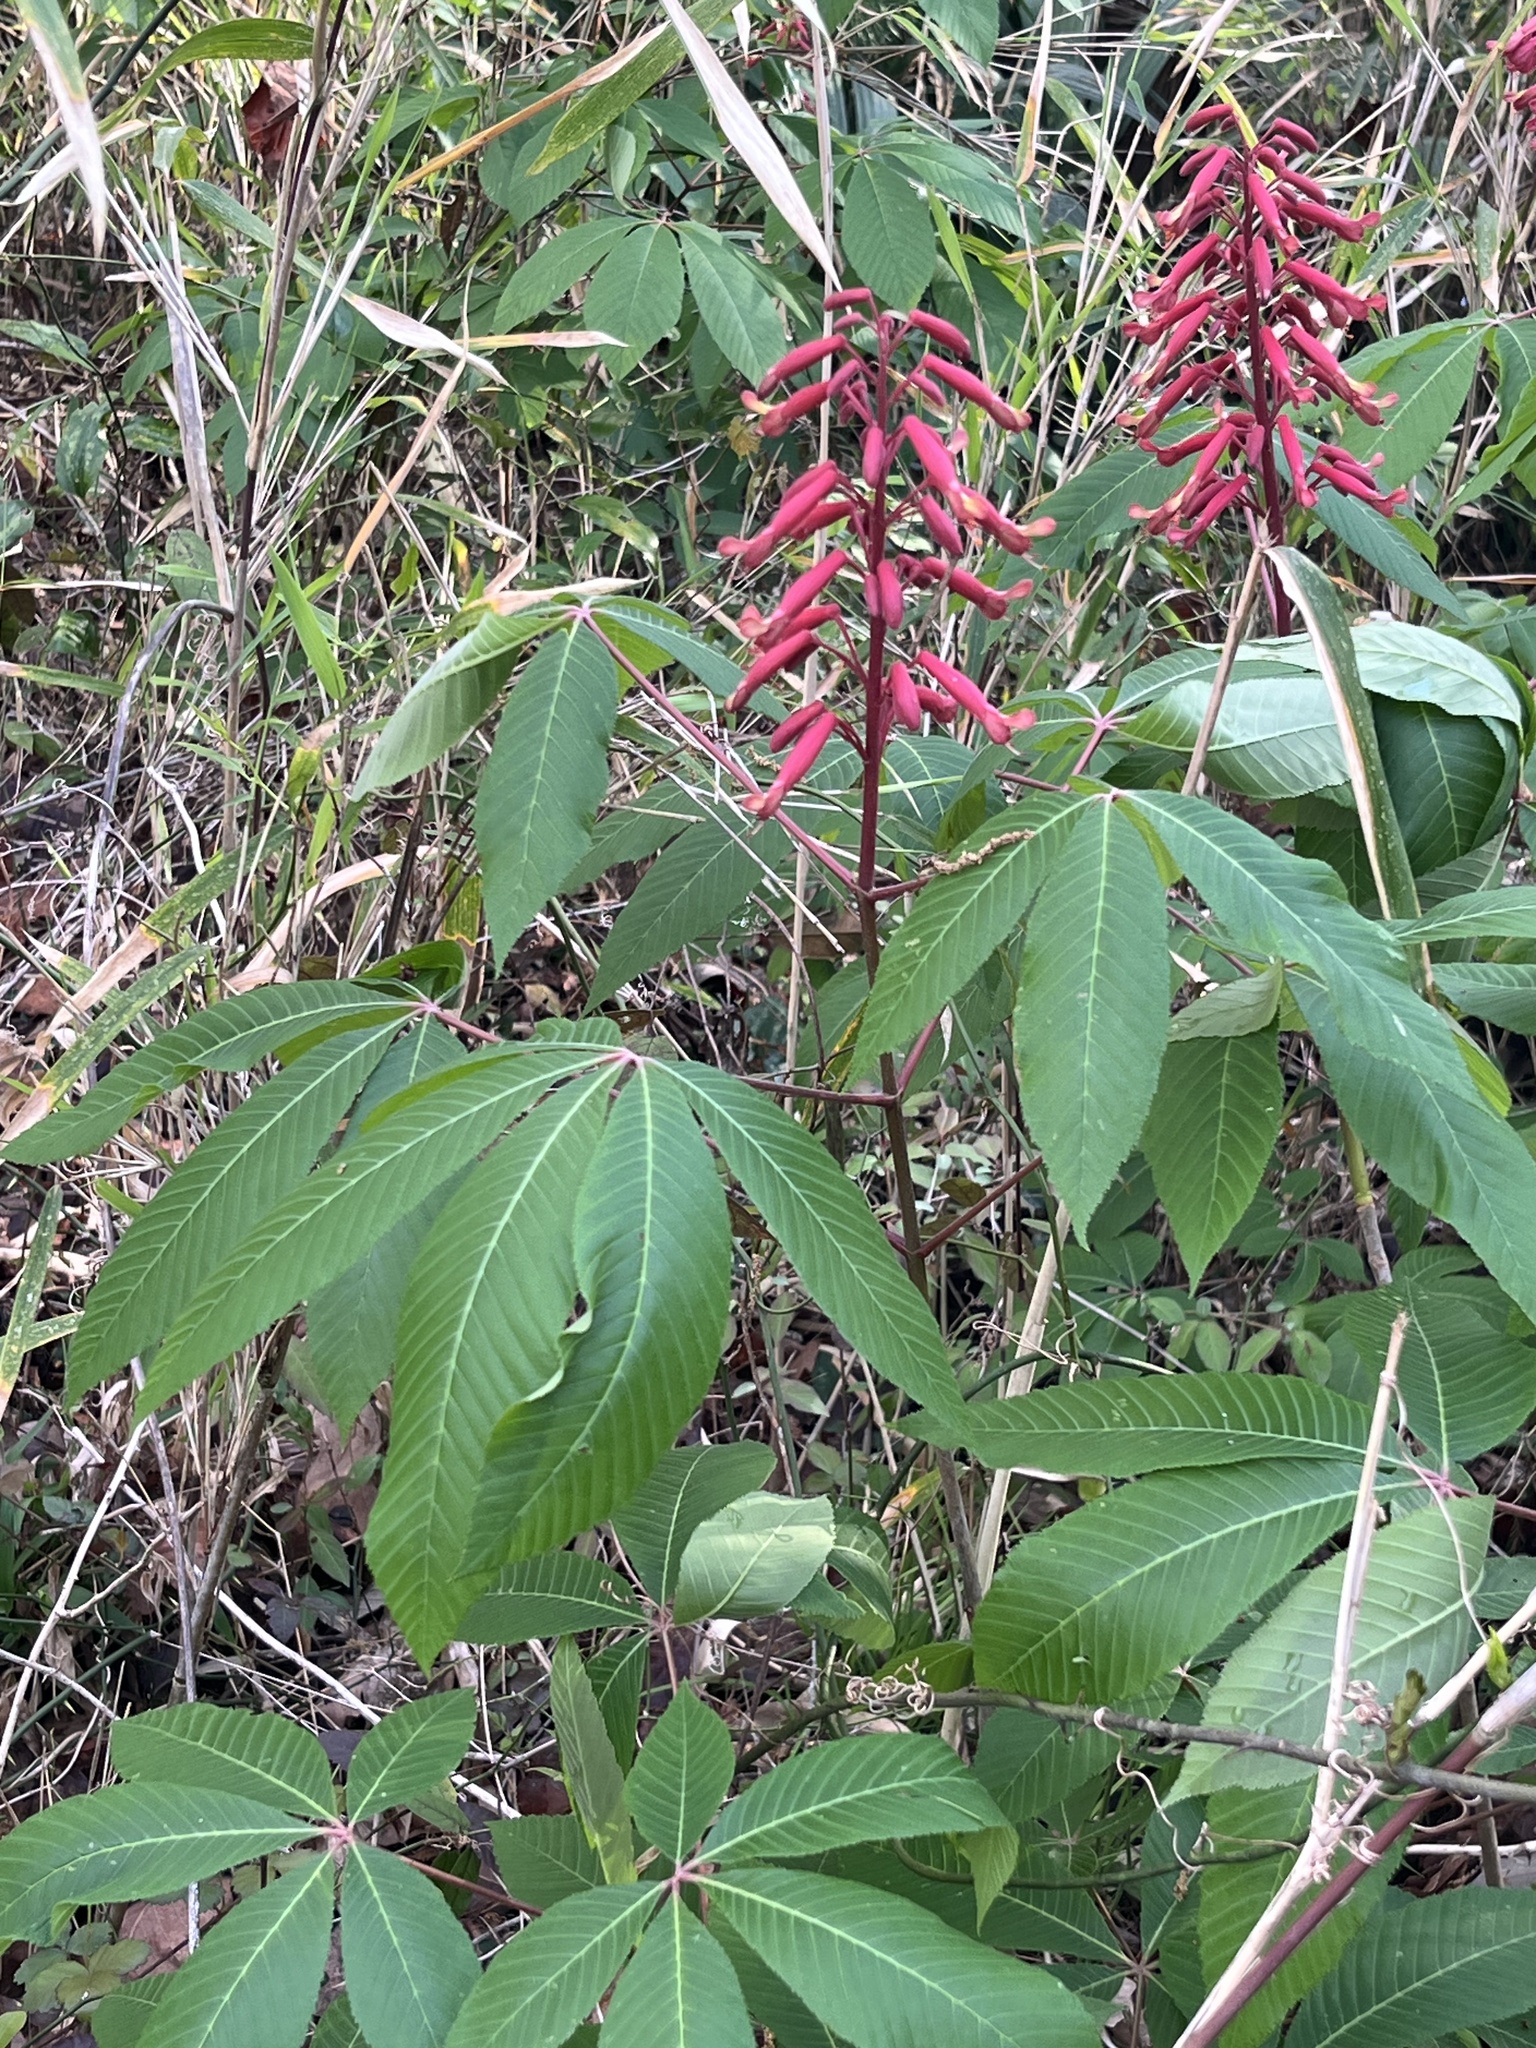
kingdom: Plantae
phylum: Tracheophyta
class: Magnoliopsida
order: Sapindales
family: Sapindaceae
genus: Aesculus
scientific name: Aesculus pavia
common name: Red buckeye
